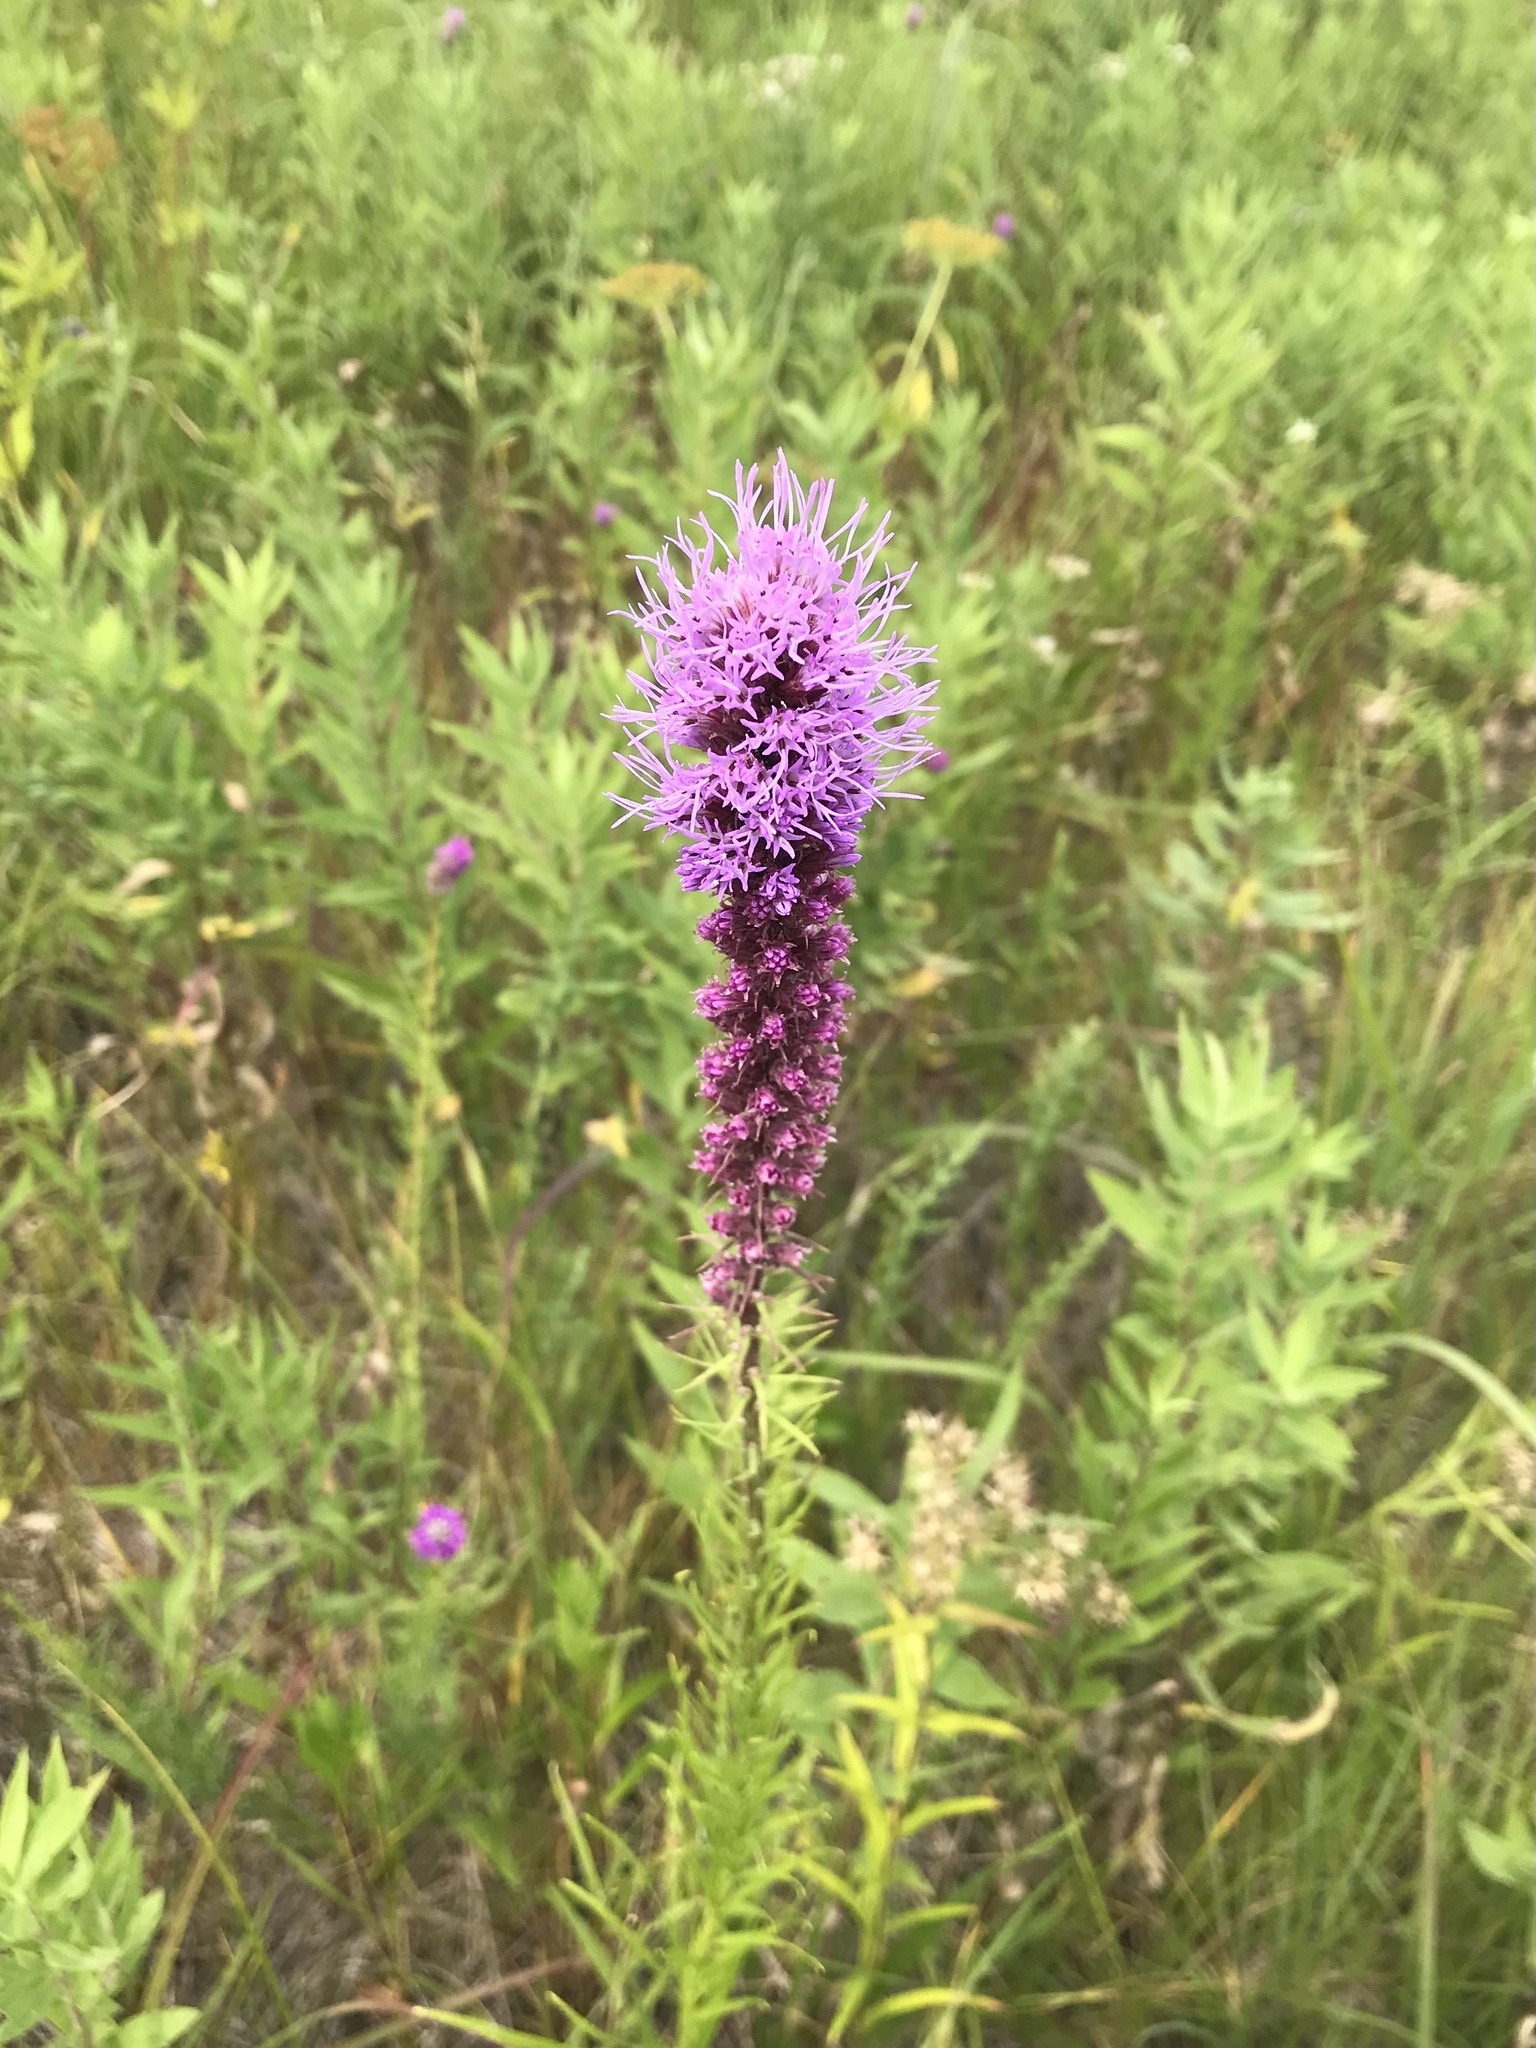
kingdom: Plantae
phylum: Tracheophyta
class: Magnoliopsida
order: Asterales
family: Asteraceae
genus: Liatris
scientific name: Liatris pycnostachya
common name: Cattail gayfeather
